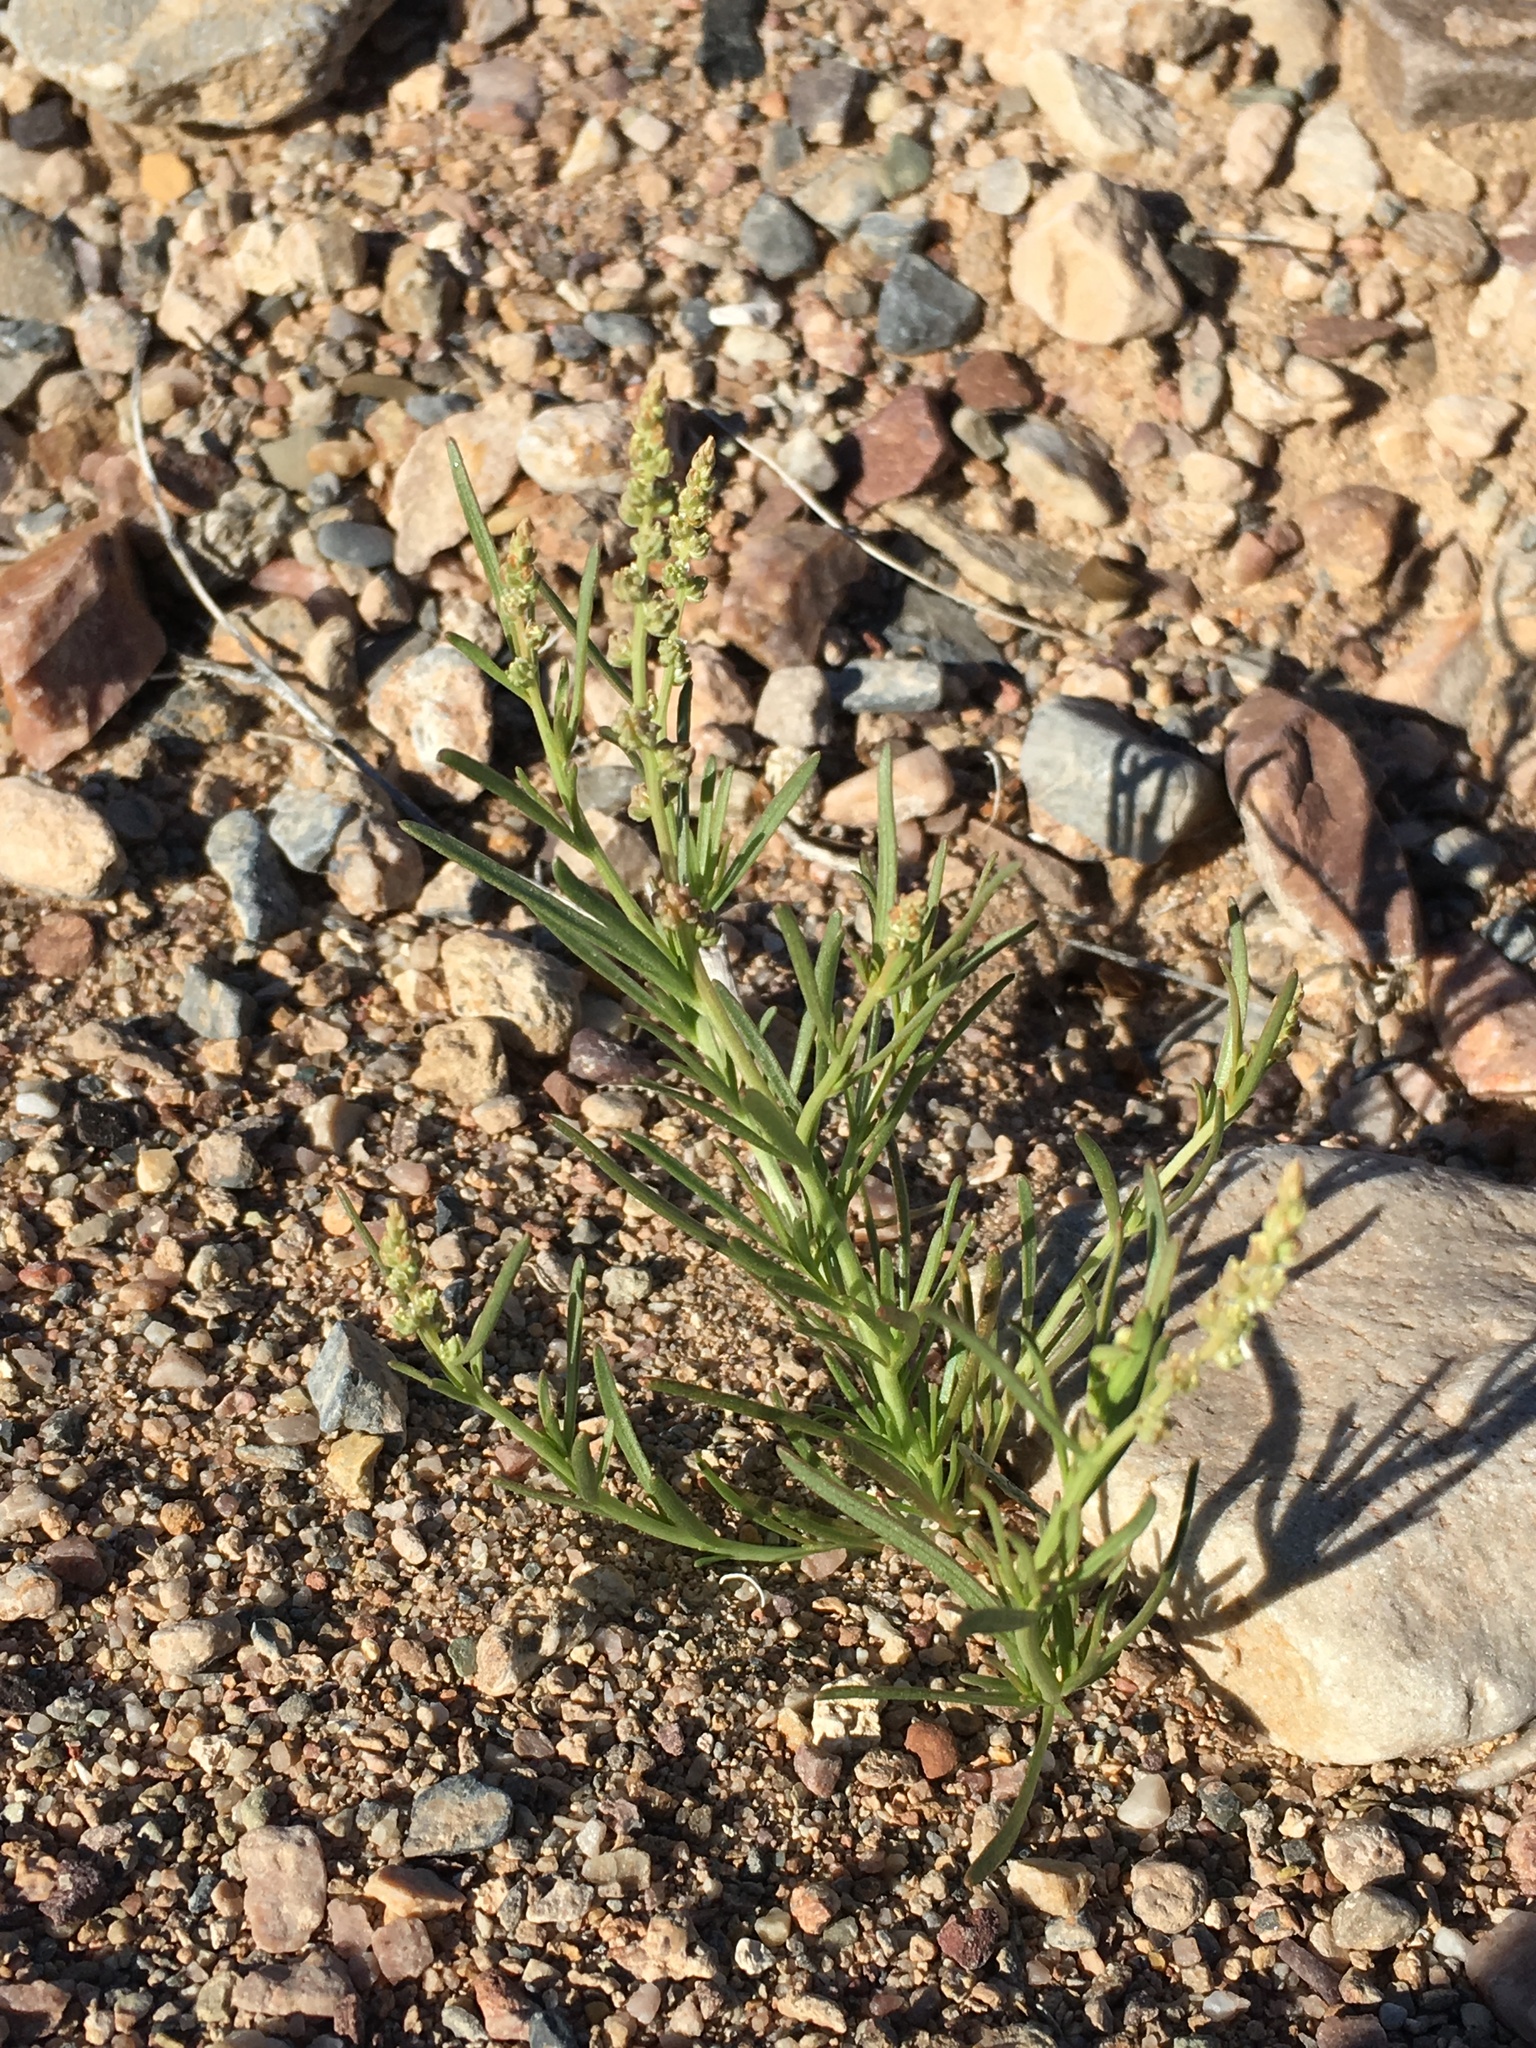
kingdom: Plantae
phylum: Tracheophyta
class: Magnoliopsida
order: Brassicales
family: Resedaceae
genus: Oligomeris
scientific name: Oligomeris linifolia
